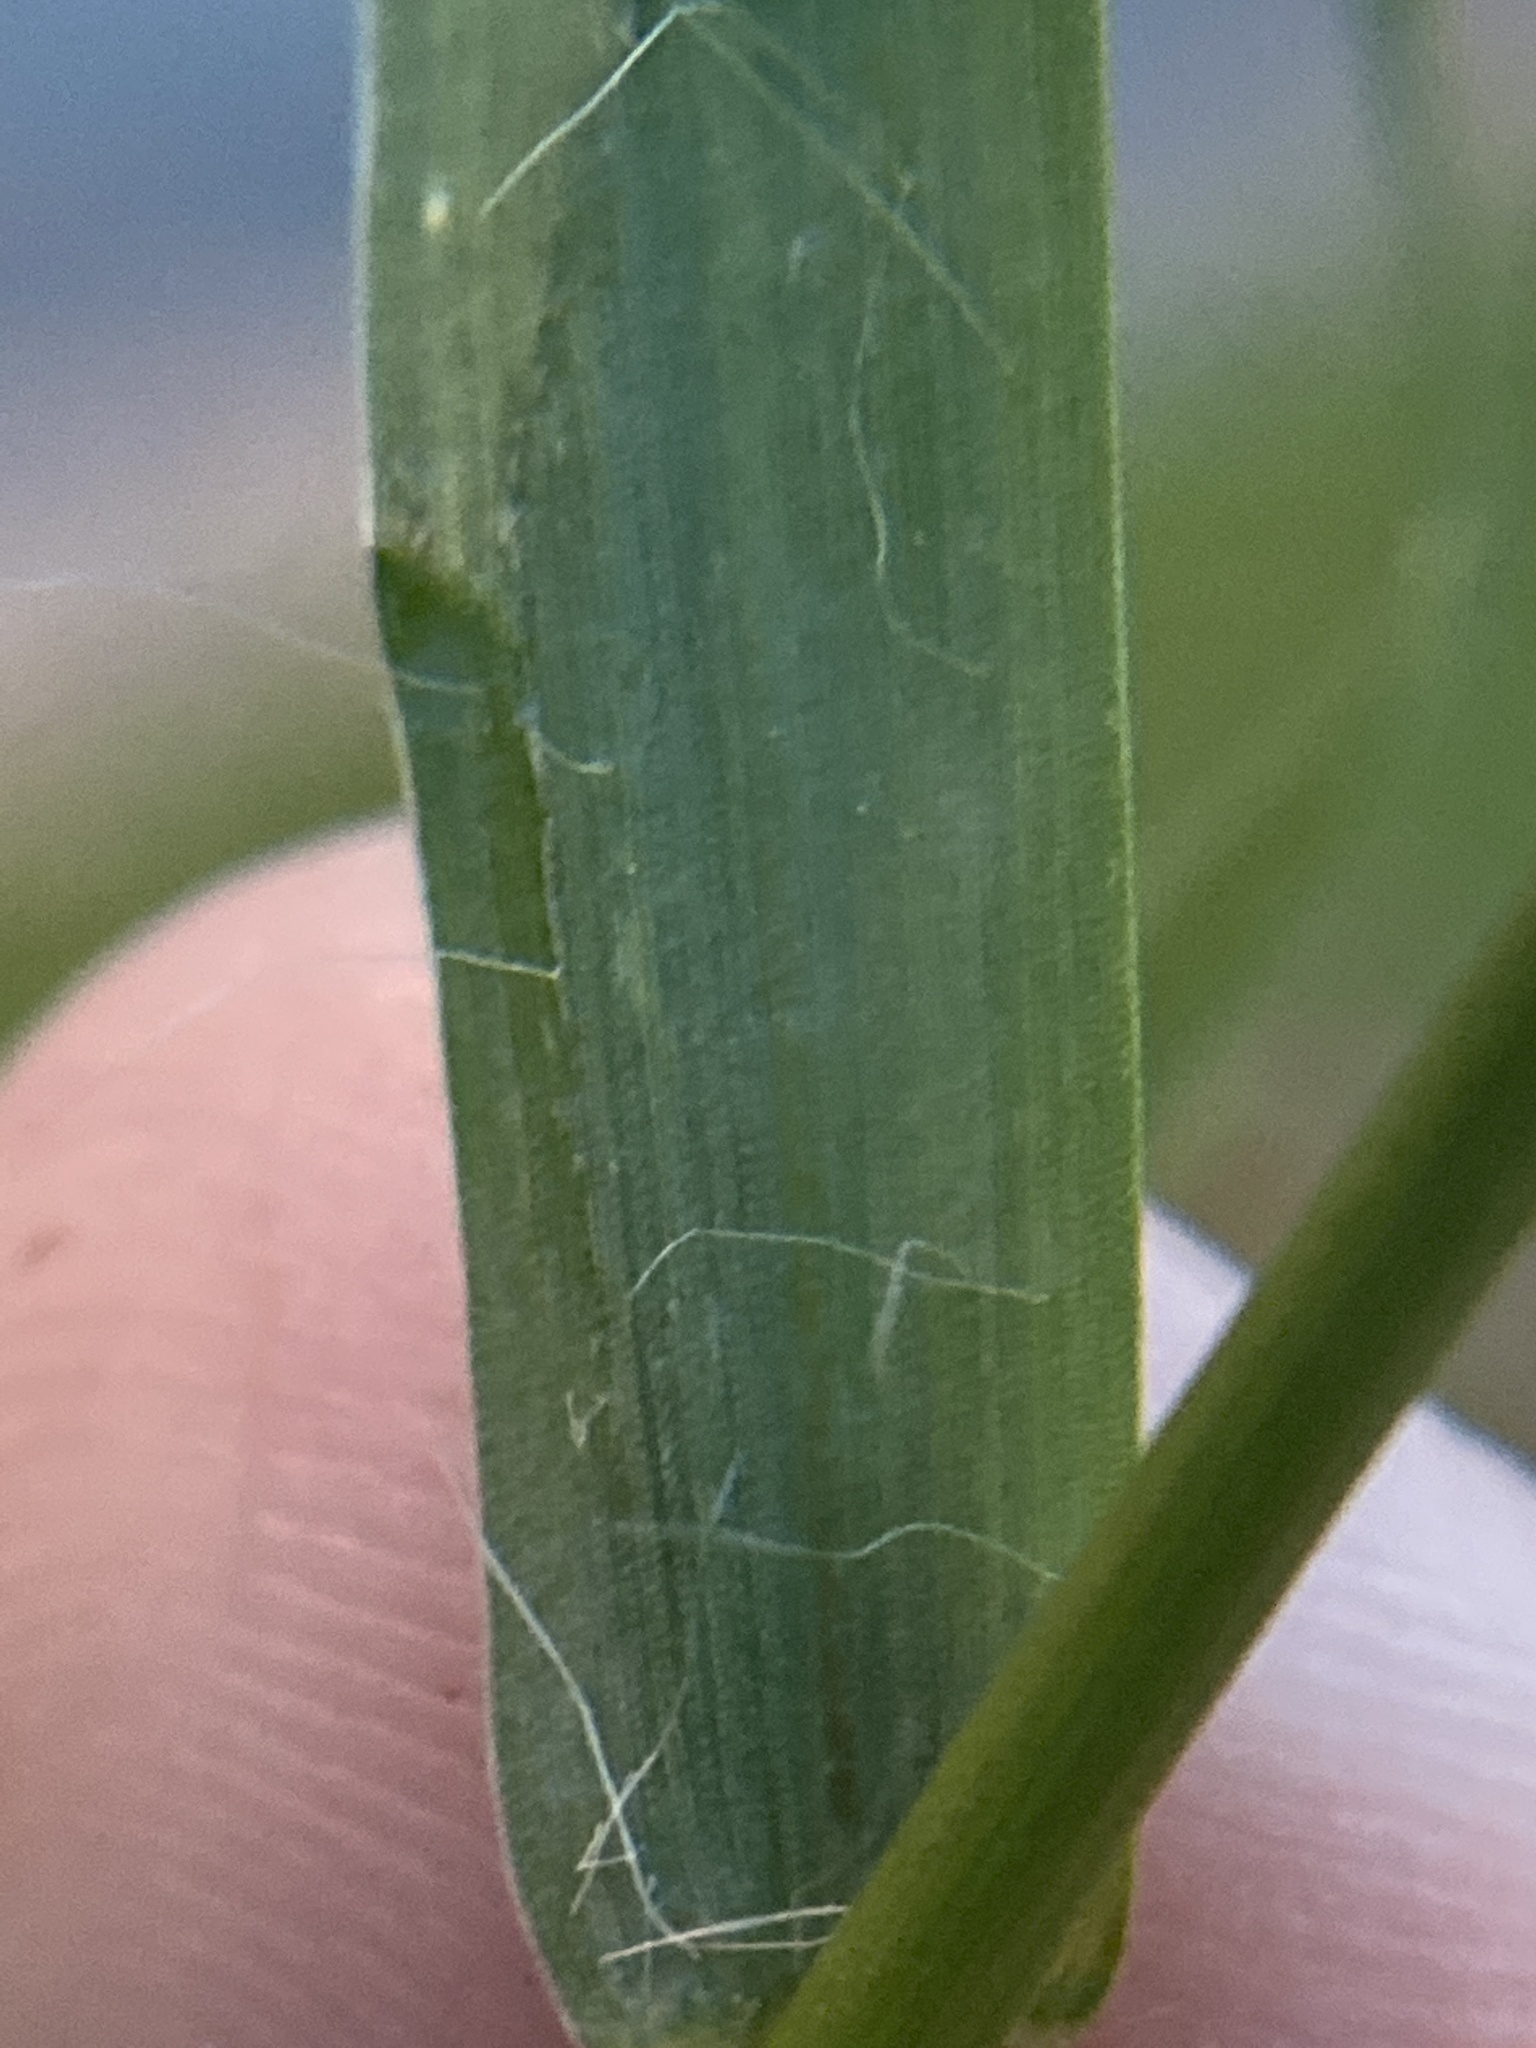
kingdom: Plantae
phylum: Tracheophyta
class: Liliopsida
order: Poales
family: Poaceae
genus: Setaria
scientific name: Setaria viridis
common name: Green bristlegrass
